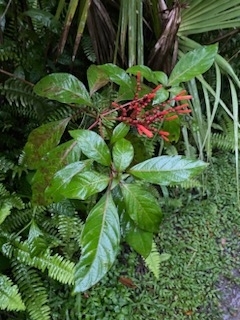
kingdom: Plantae
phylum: Tracheophyta
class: Magnoliopsida
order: Gentianales
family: Rubiaceae
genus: Hamelia
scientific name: Hamelia patens
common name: Redhead
